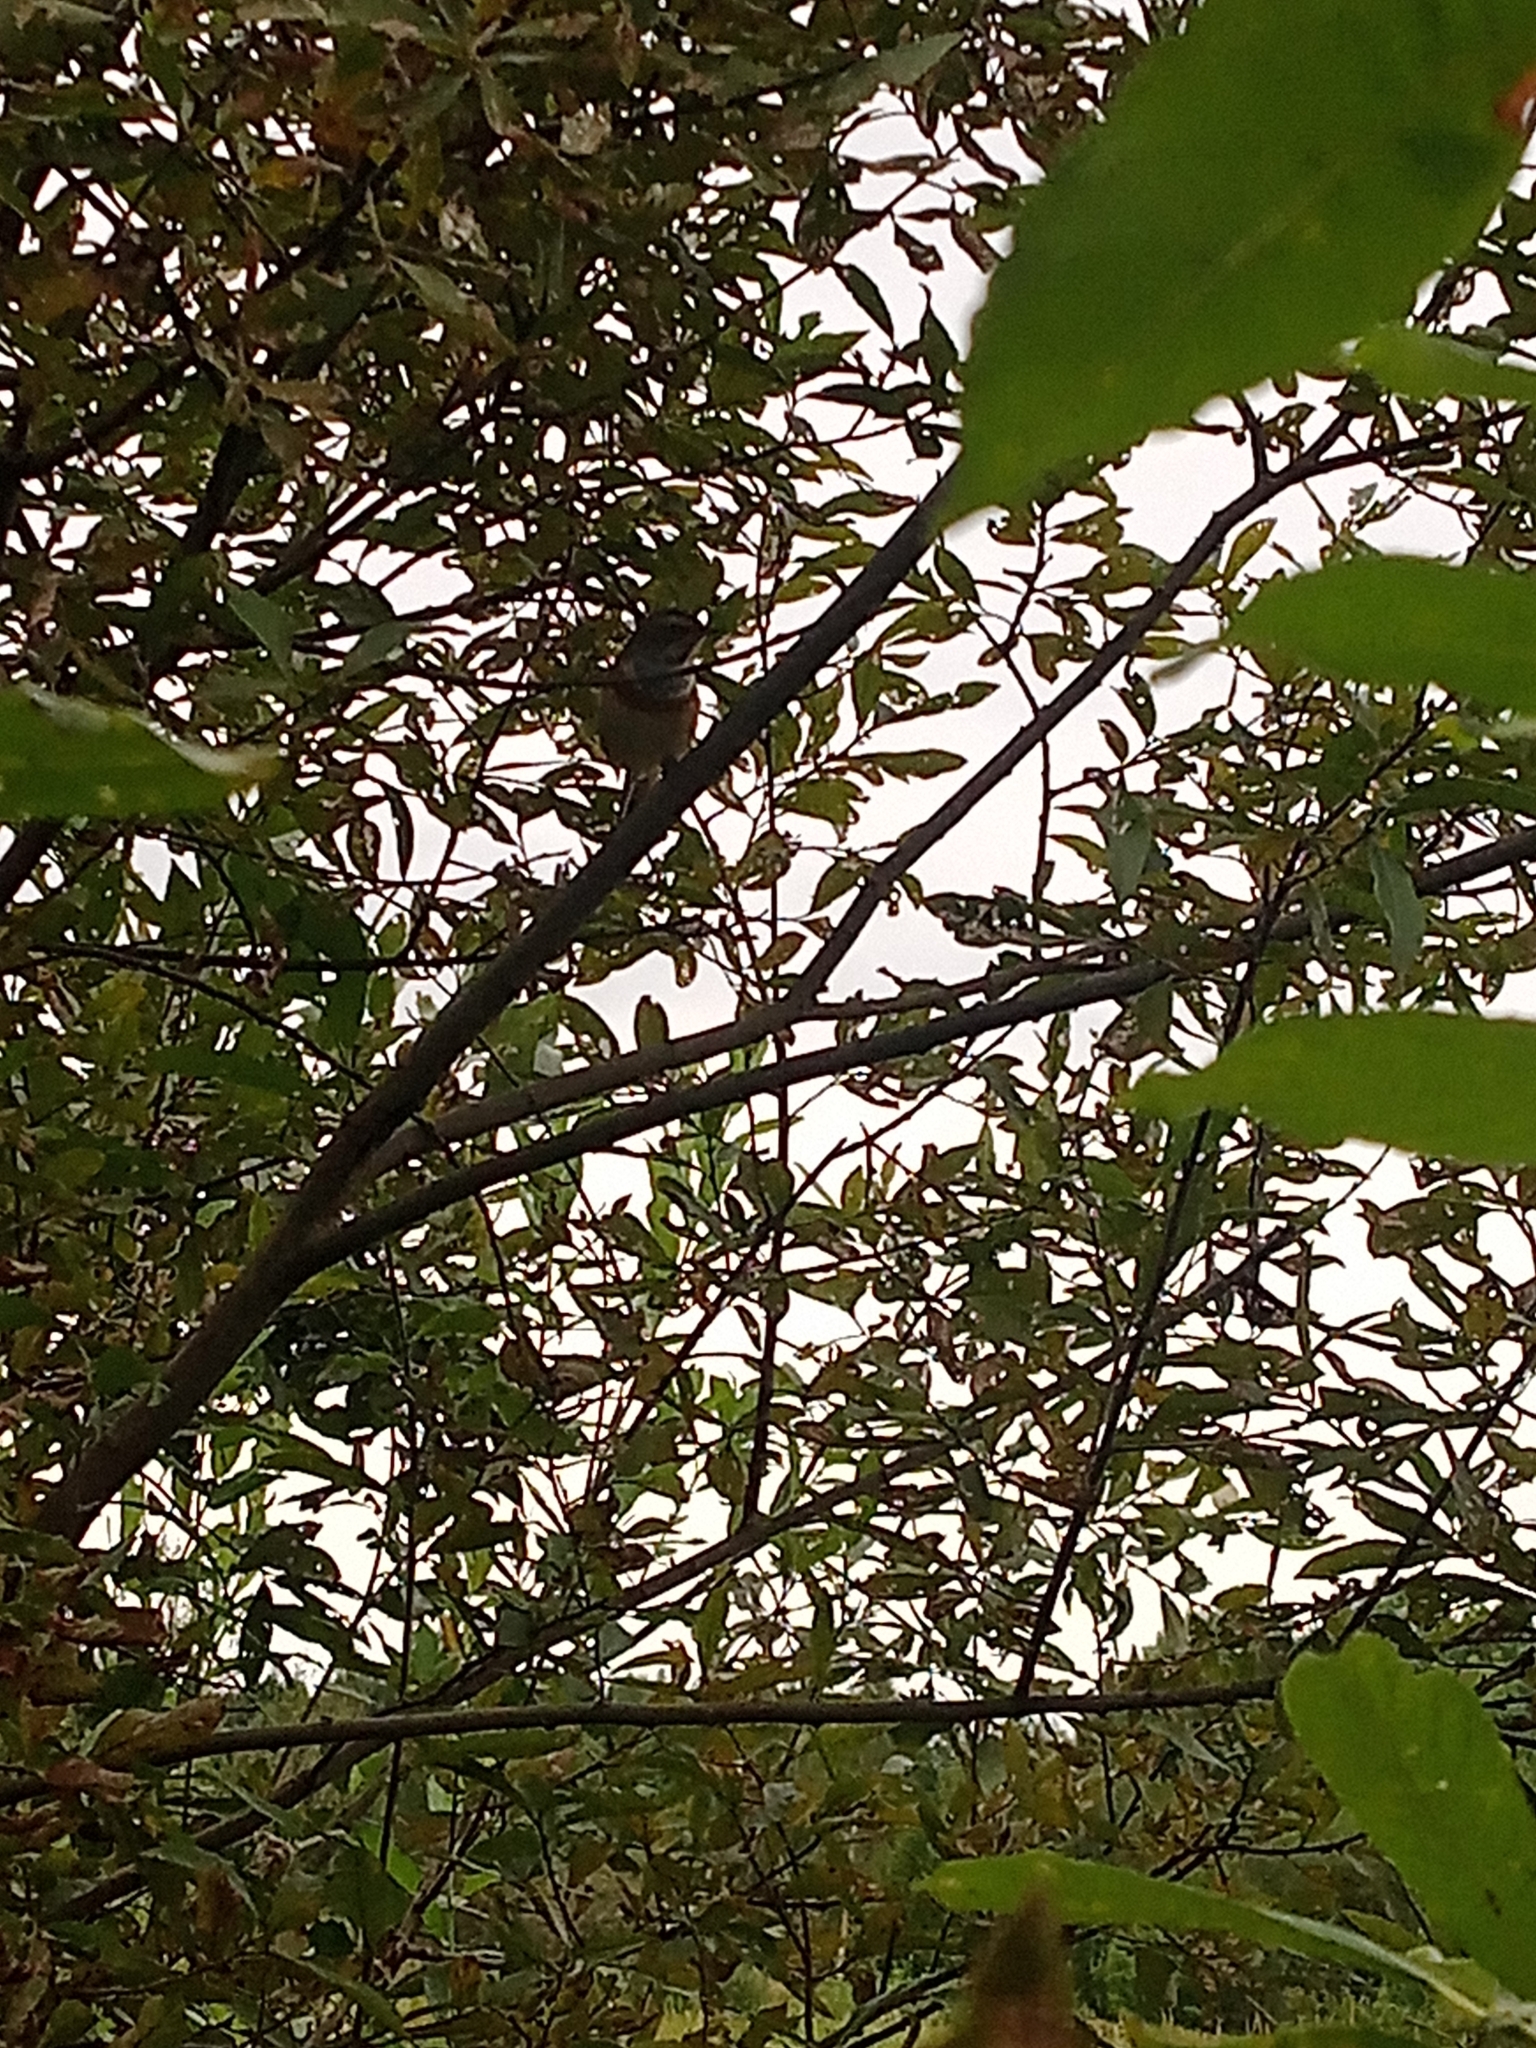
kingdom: Animalia
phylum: Chordata
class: Aves
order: Passeriformes
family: Muscicapidae
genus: Luscinia
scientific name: Luscinia svecica
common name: Bluethroat
